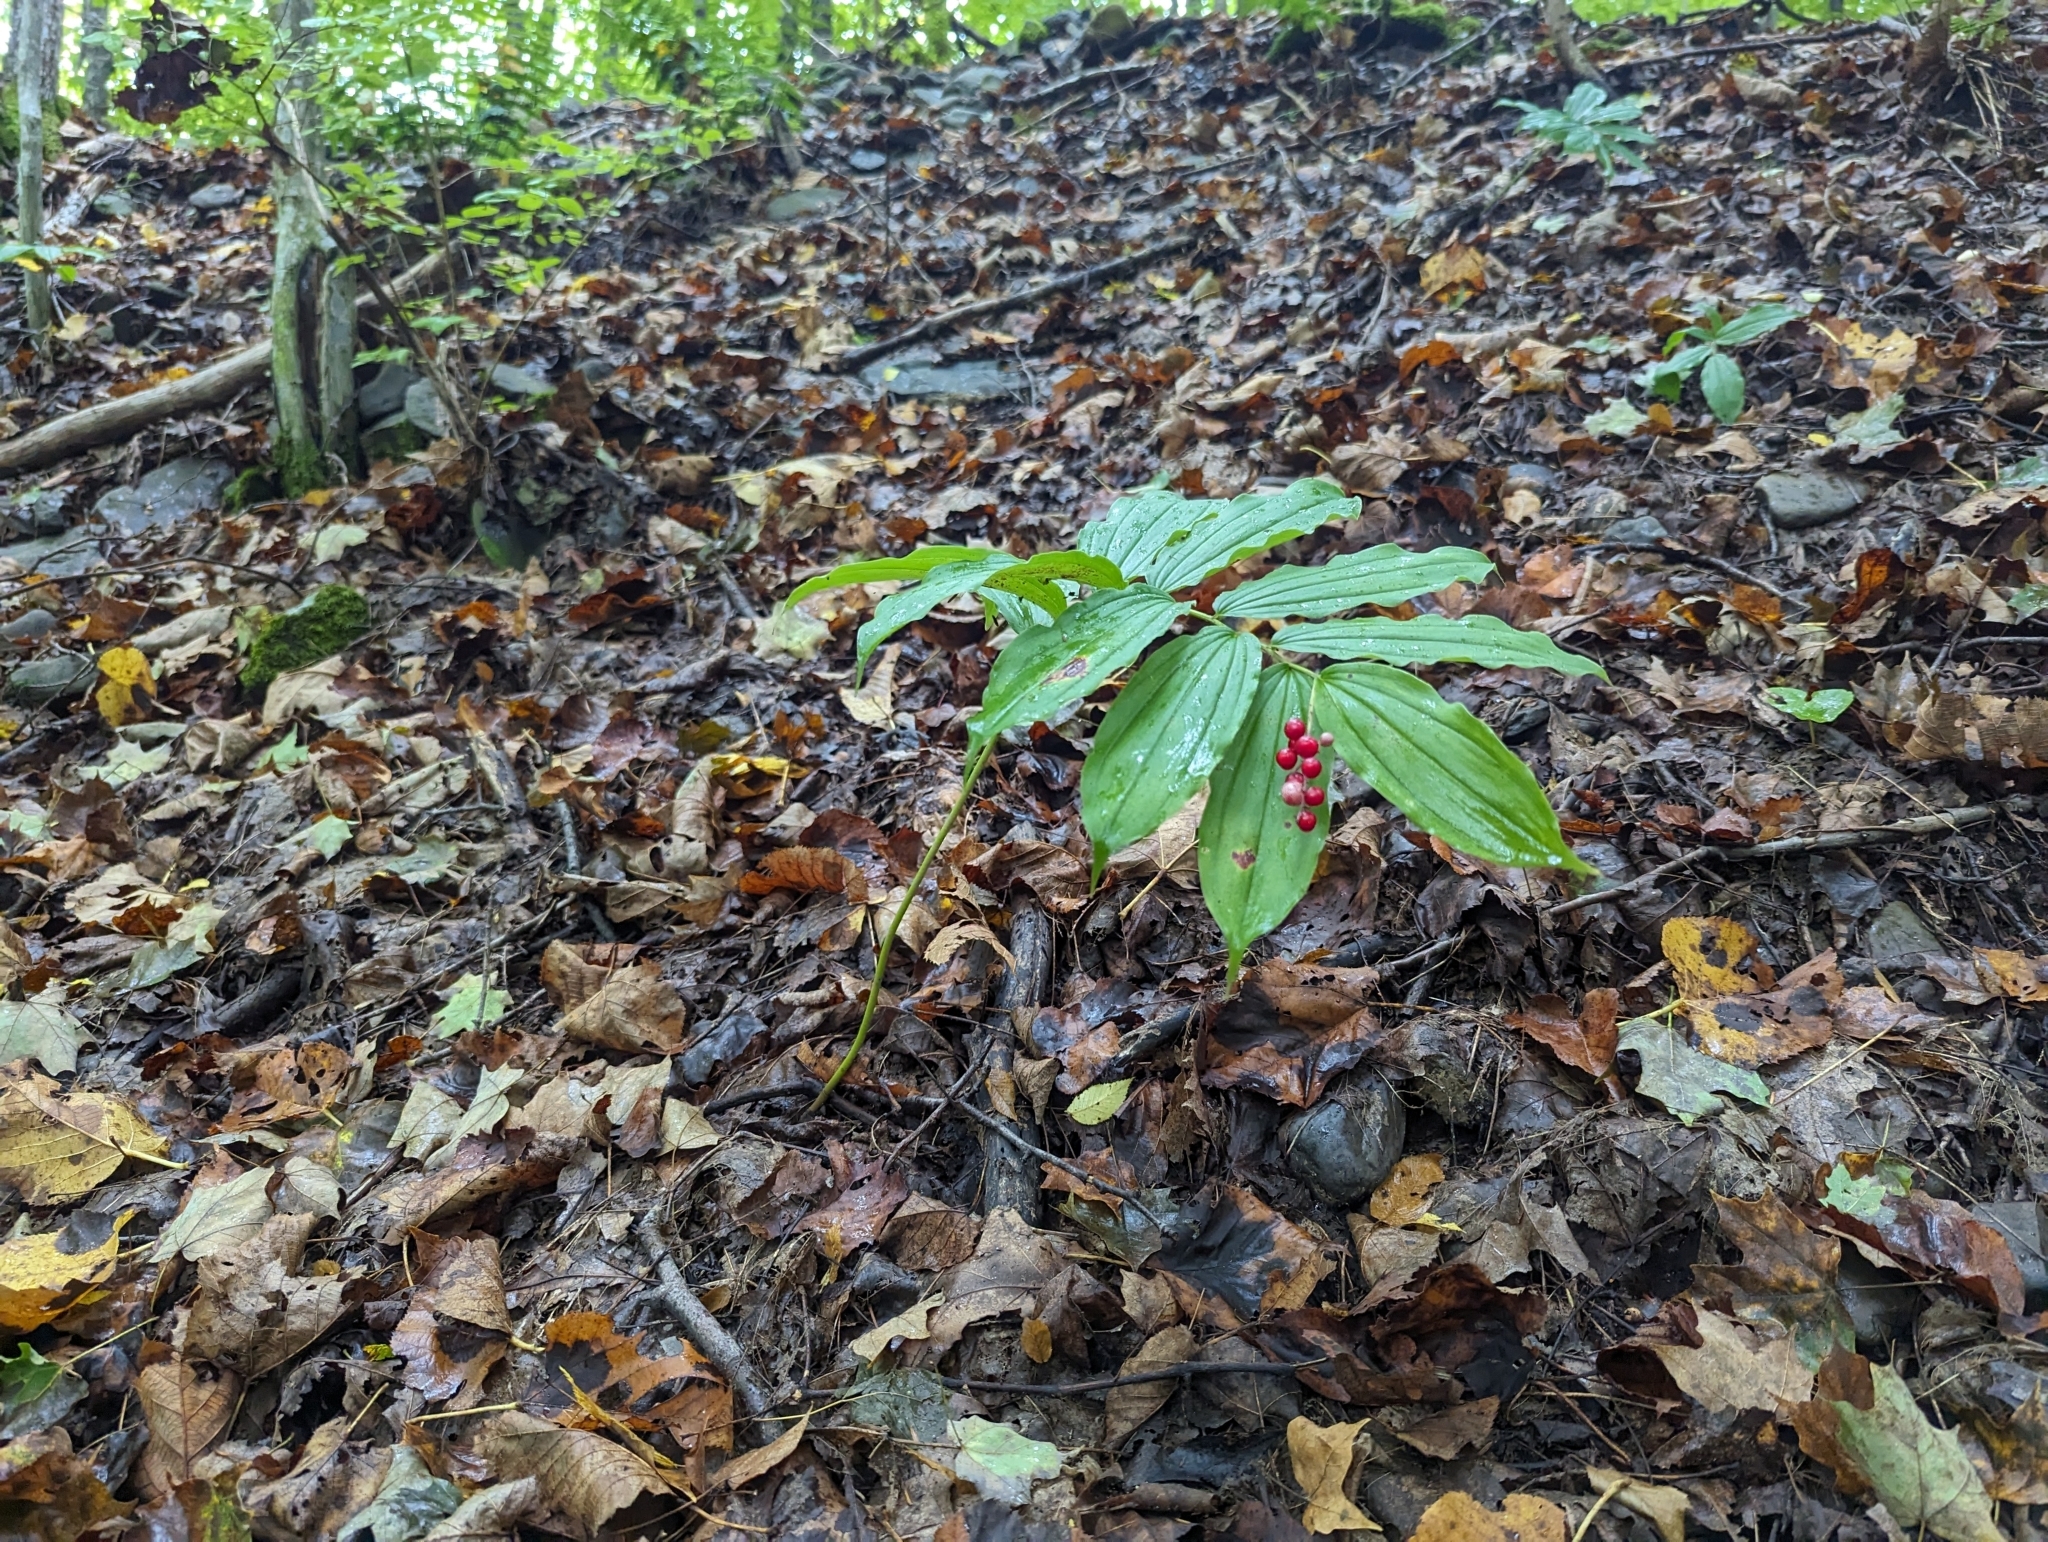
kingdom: Plantae
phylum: Tracheophyta
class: Liliopsida
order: Asparagales
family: Asparagaceae
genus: Maianthemum
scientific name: Maianthemum racemosum
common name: False spikenard
